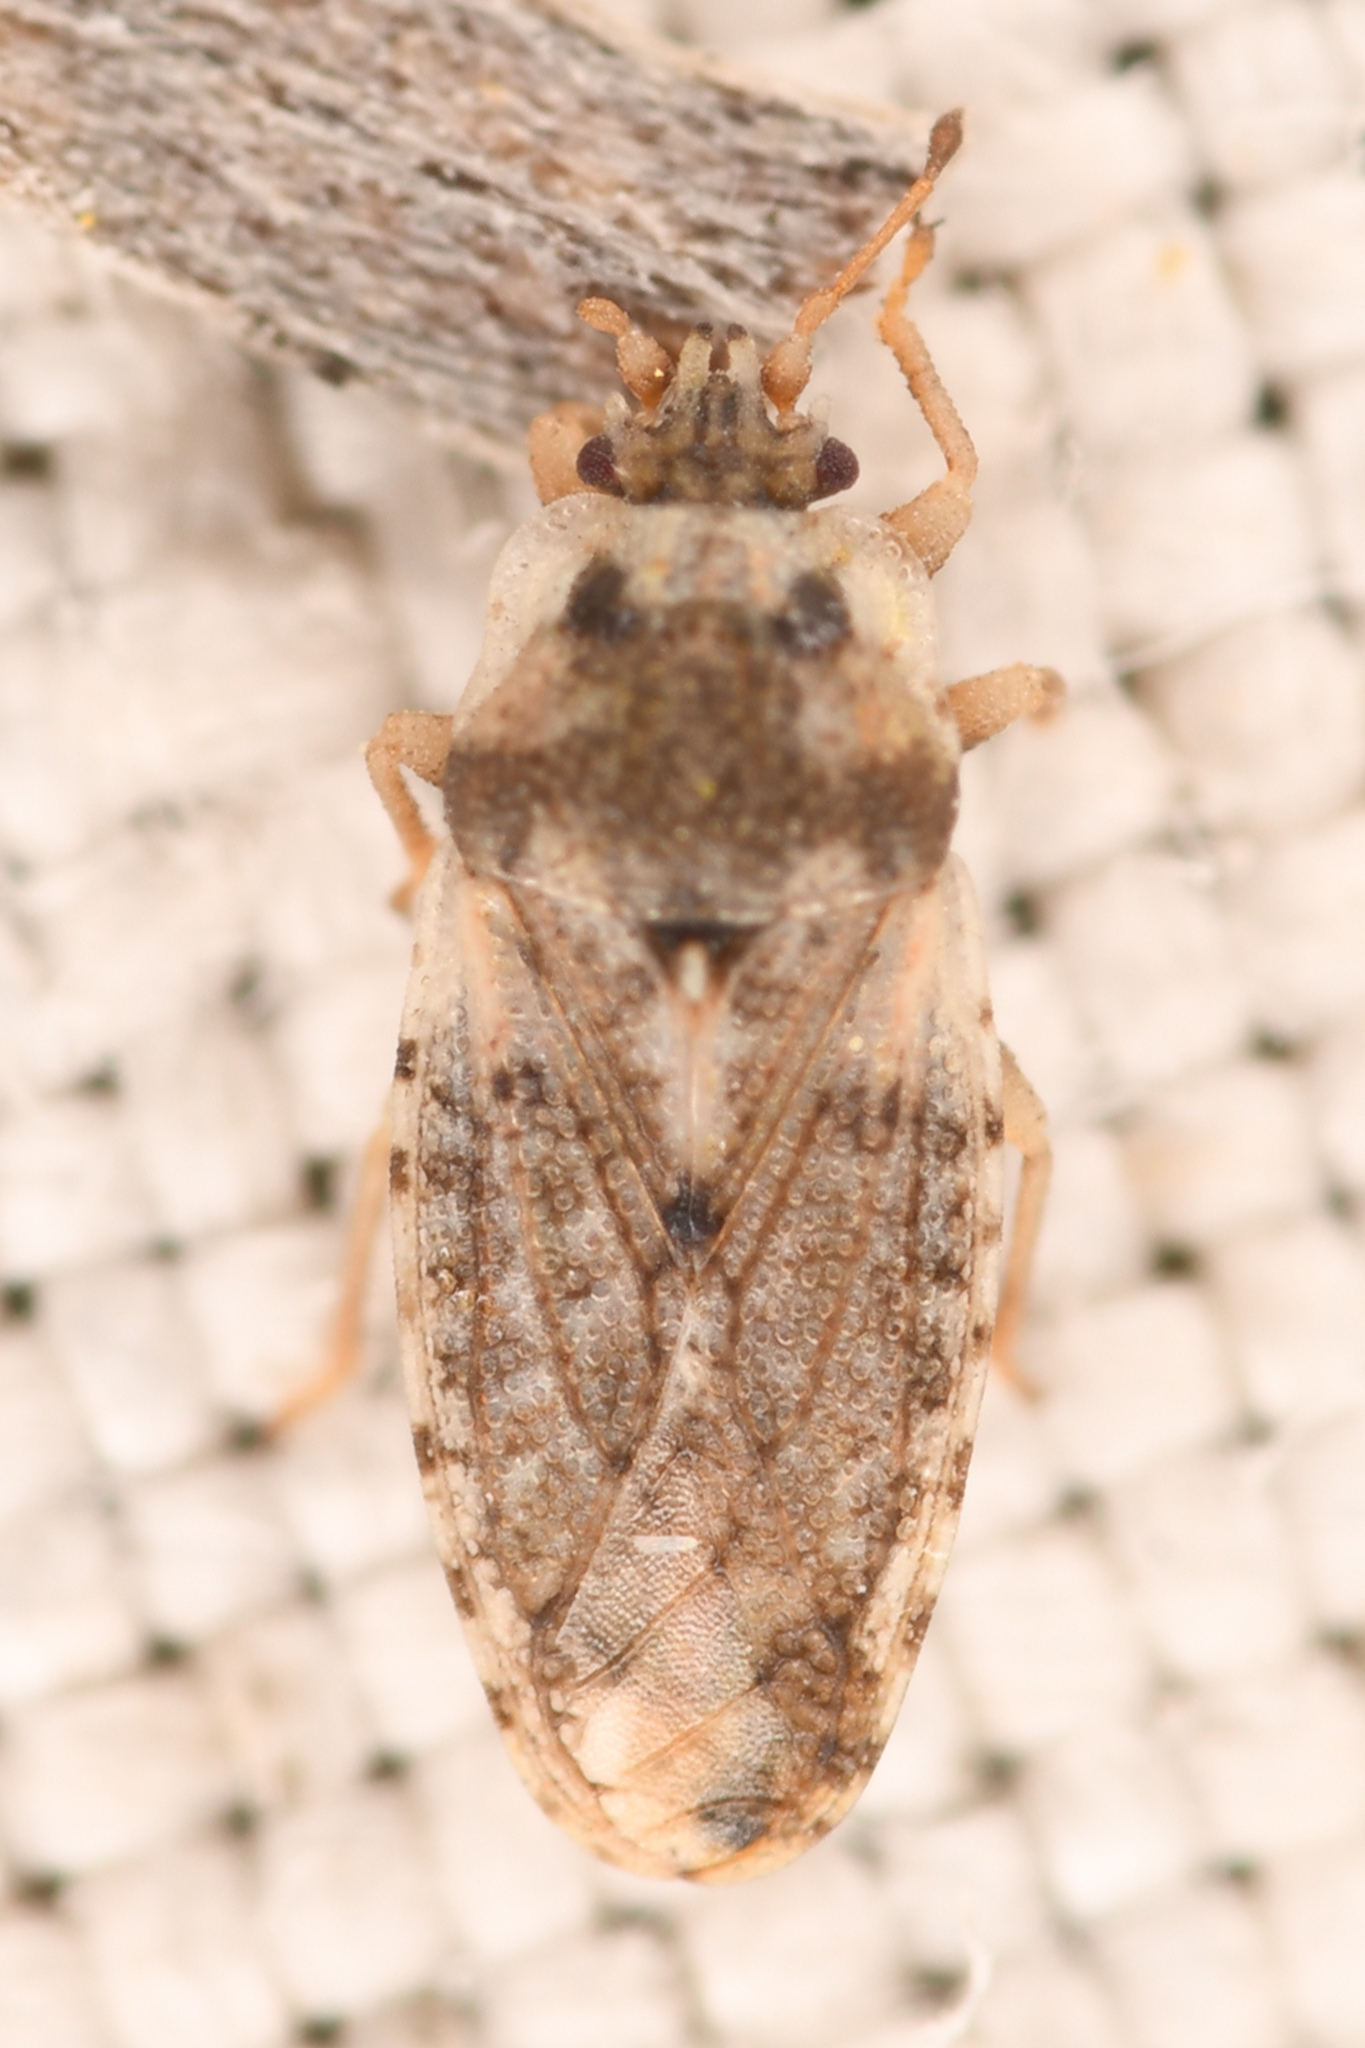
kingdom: Animalia
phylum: Arthropoda
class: Insecta
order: Hemiptera
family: Piesmatidae
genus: Parapiesma
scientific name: Parapiesma cinereum
